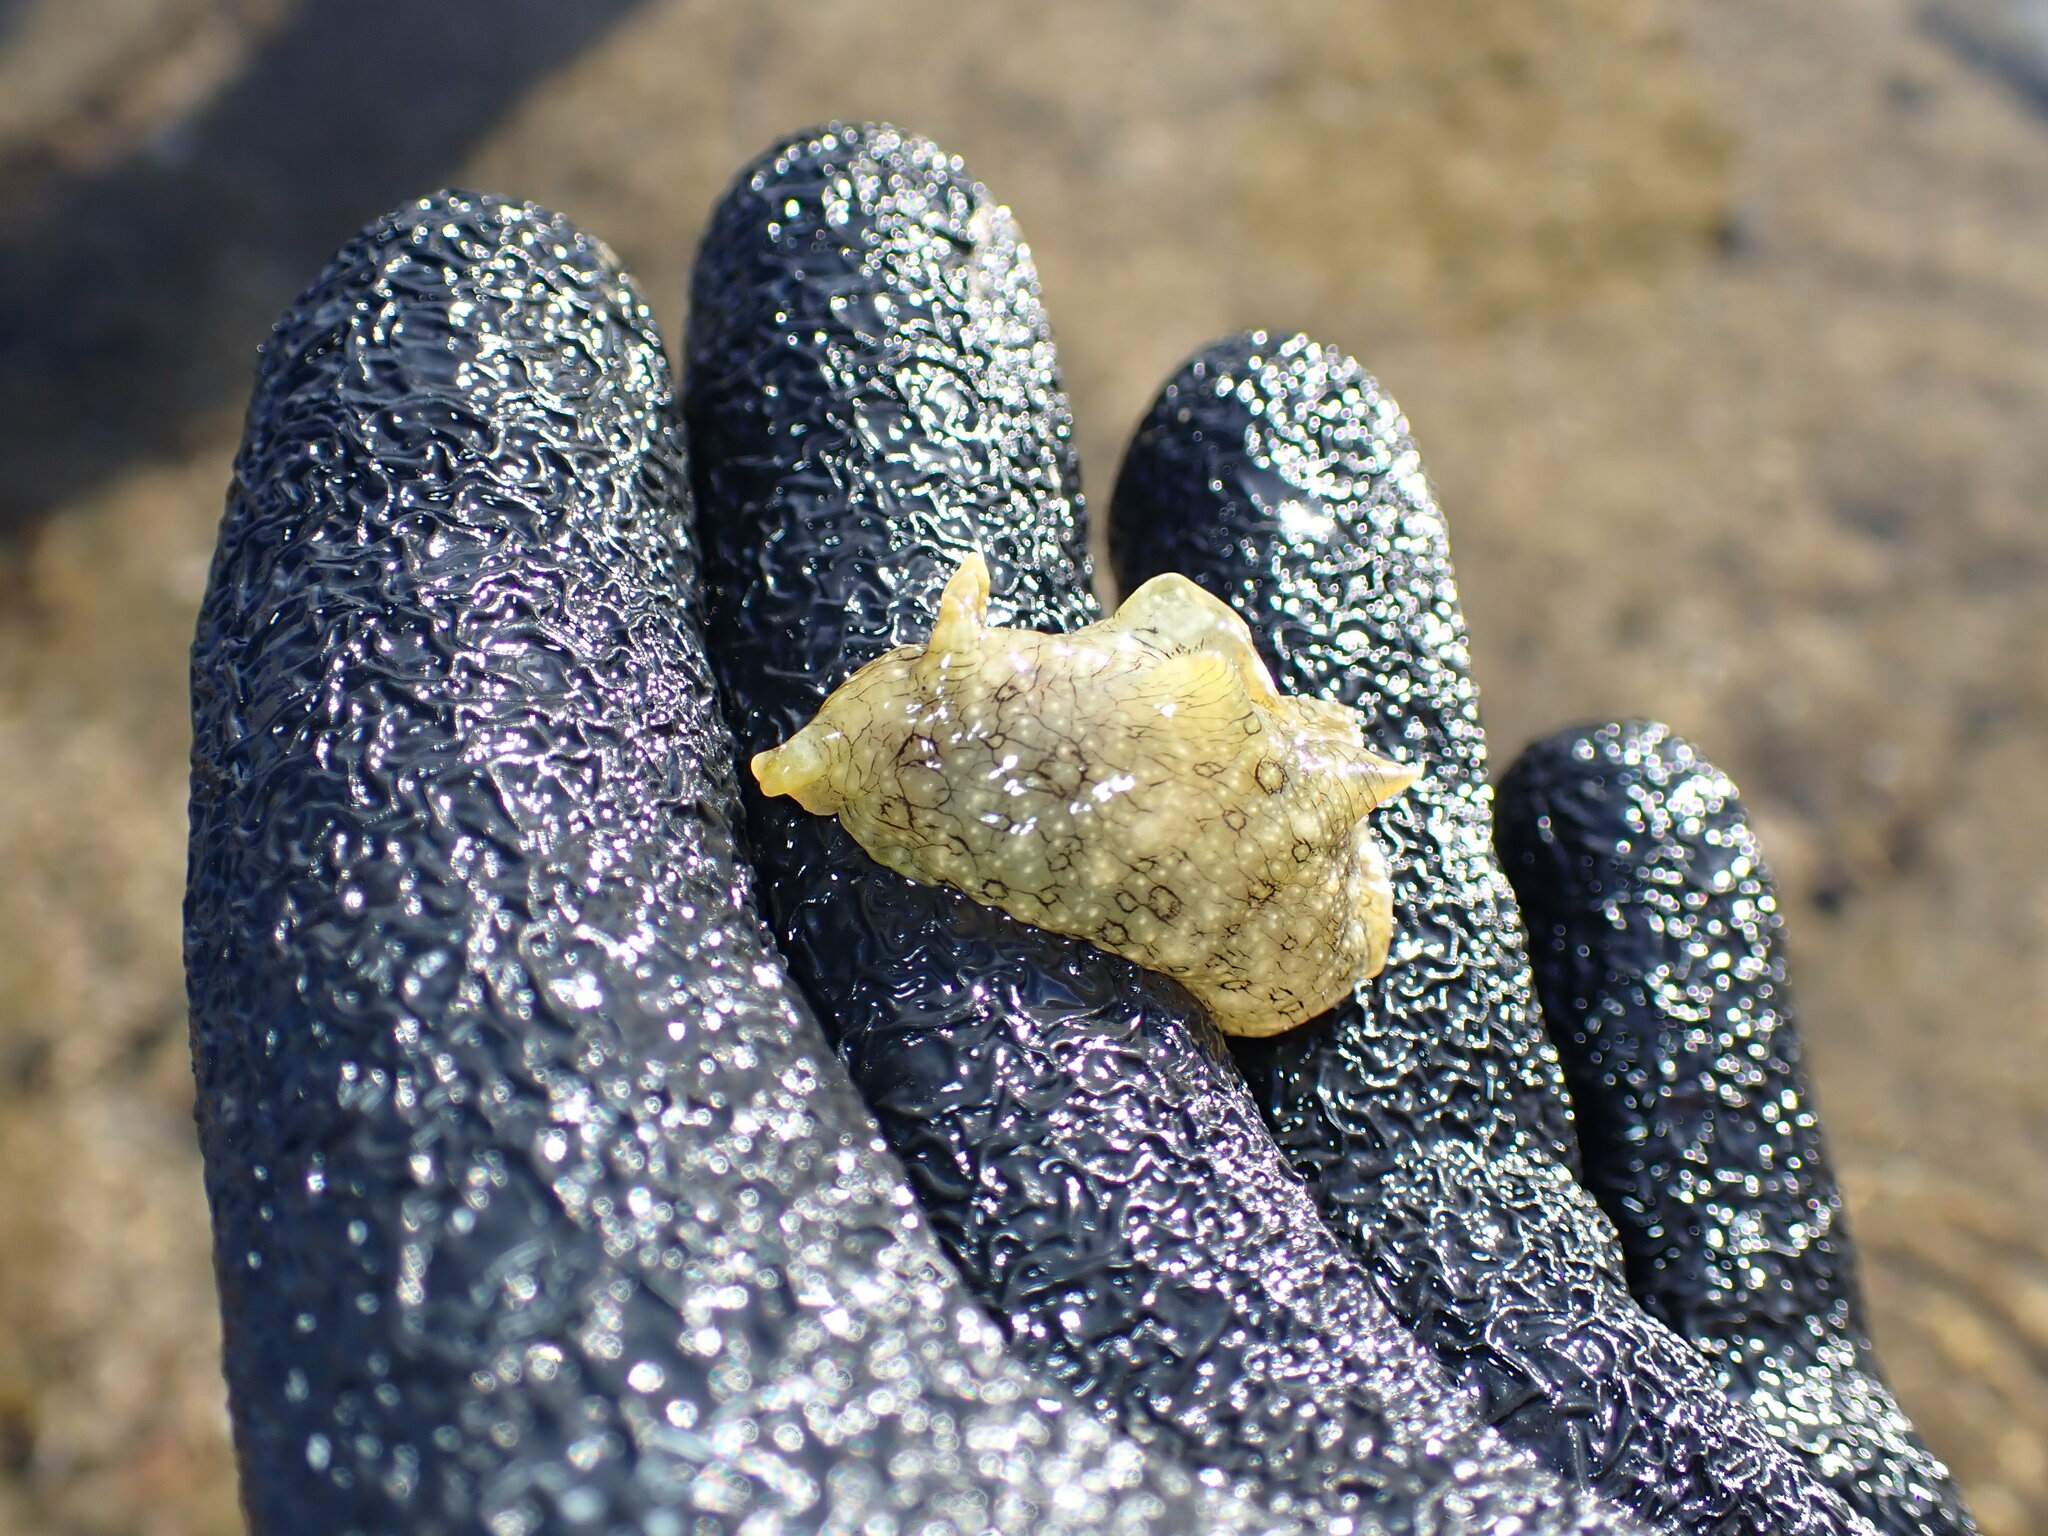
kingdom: Animalia
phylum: Mollusca
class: Gastropoda
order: Aplysiida
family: Aplysiidae
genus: Aplysia
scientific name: Aplysia argus
